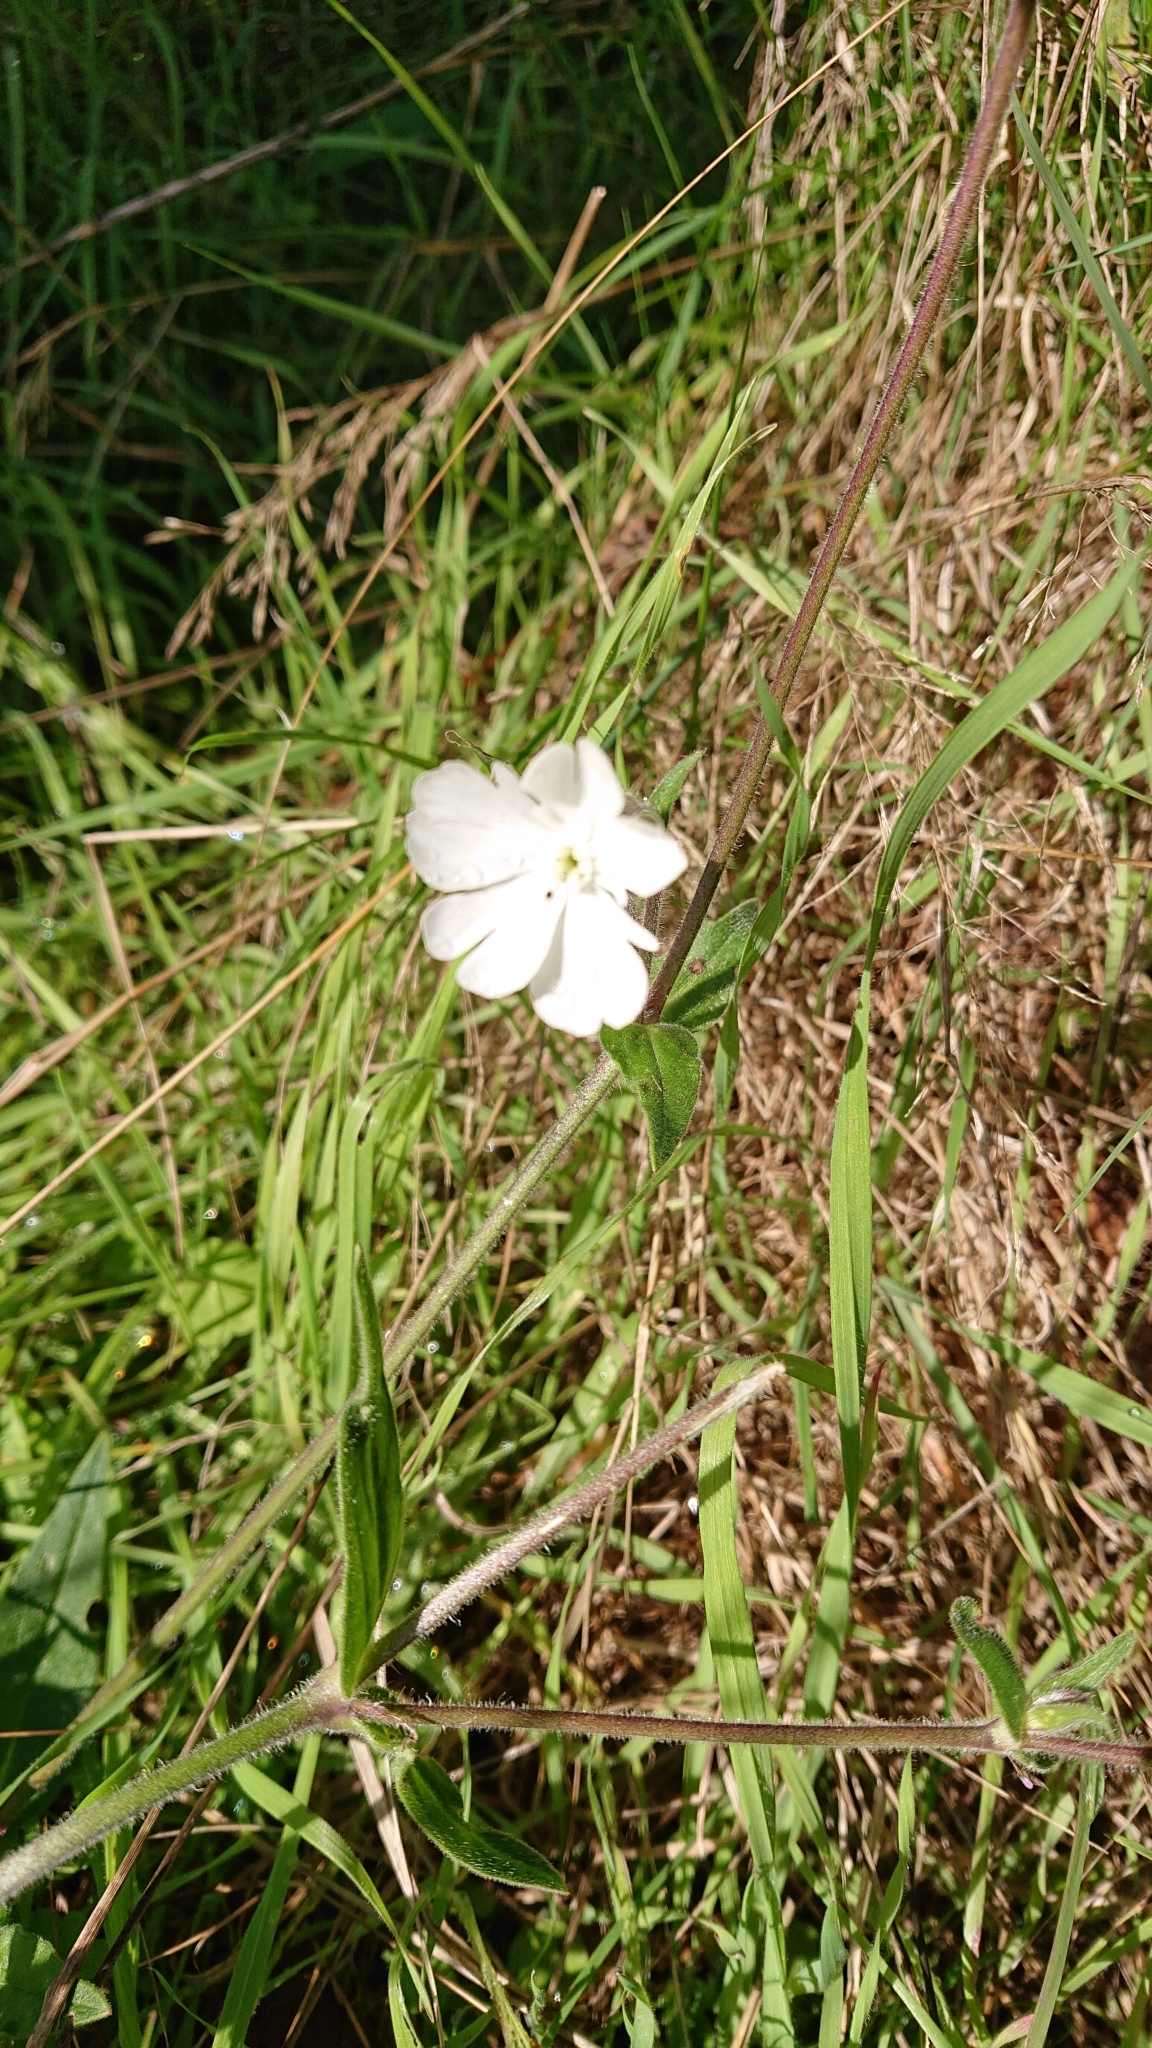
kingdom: Plantae
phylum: Tracheophyta
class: Magnoliopsida
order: Caryophyllales
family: Caryophyllaceae
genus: Silene
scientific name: Silene latifolia
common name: White campion
